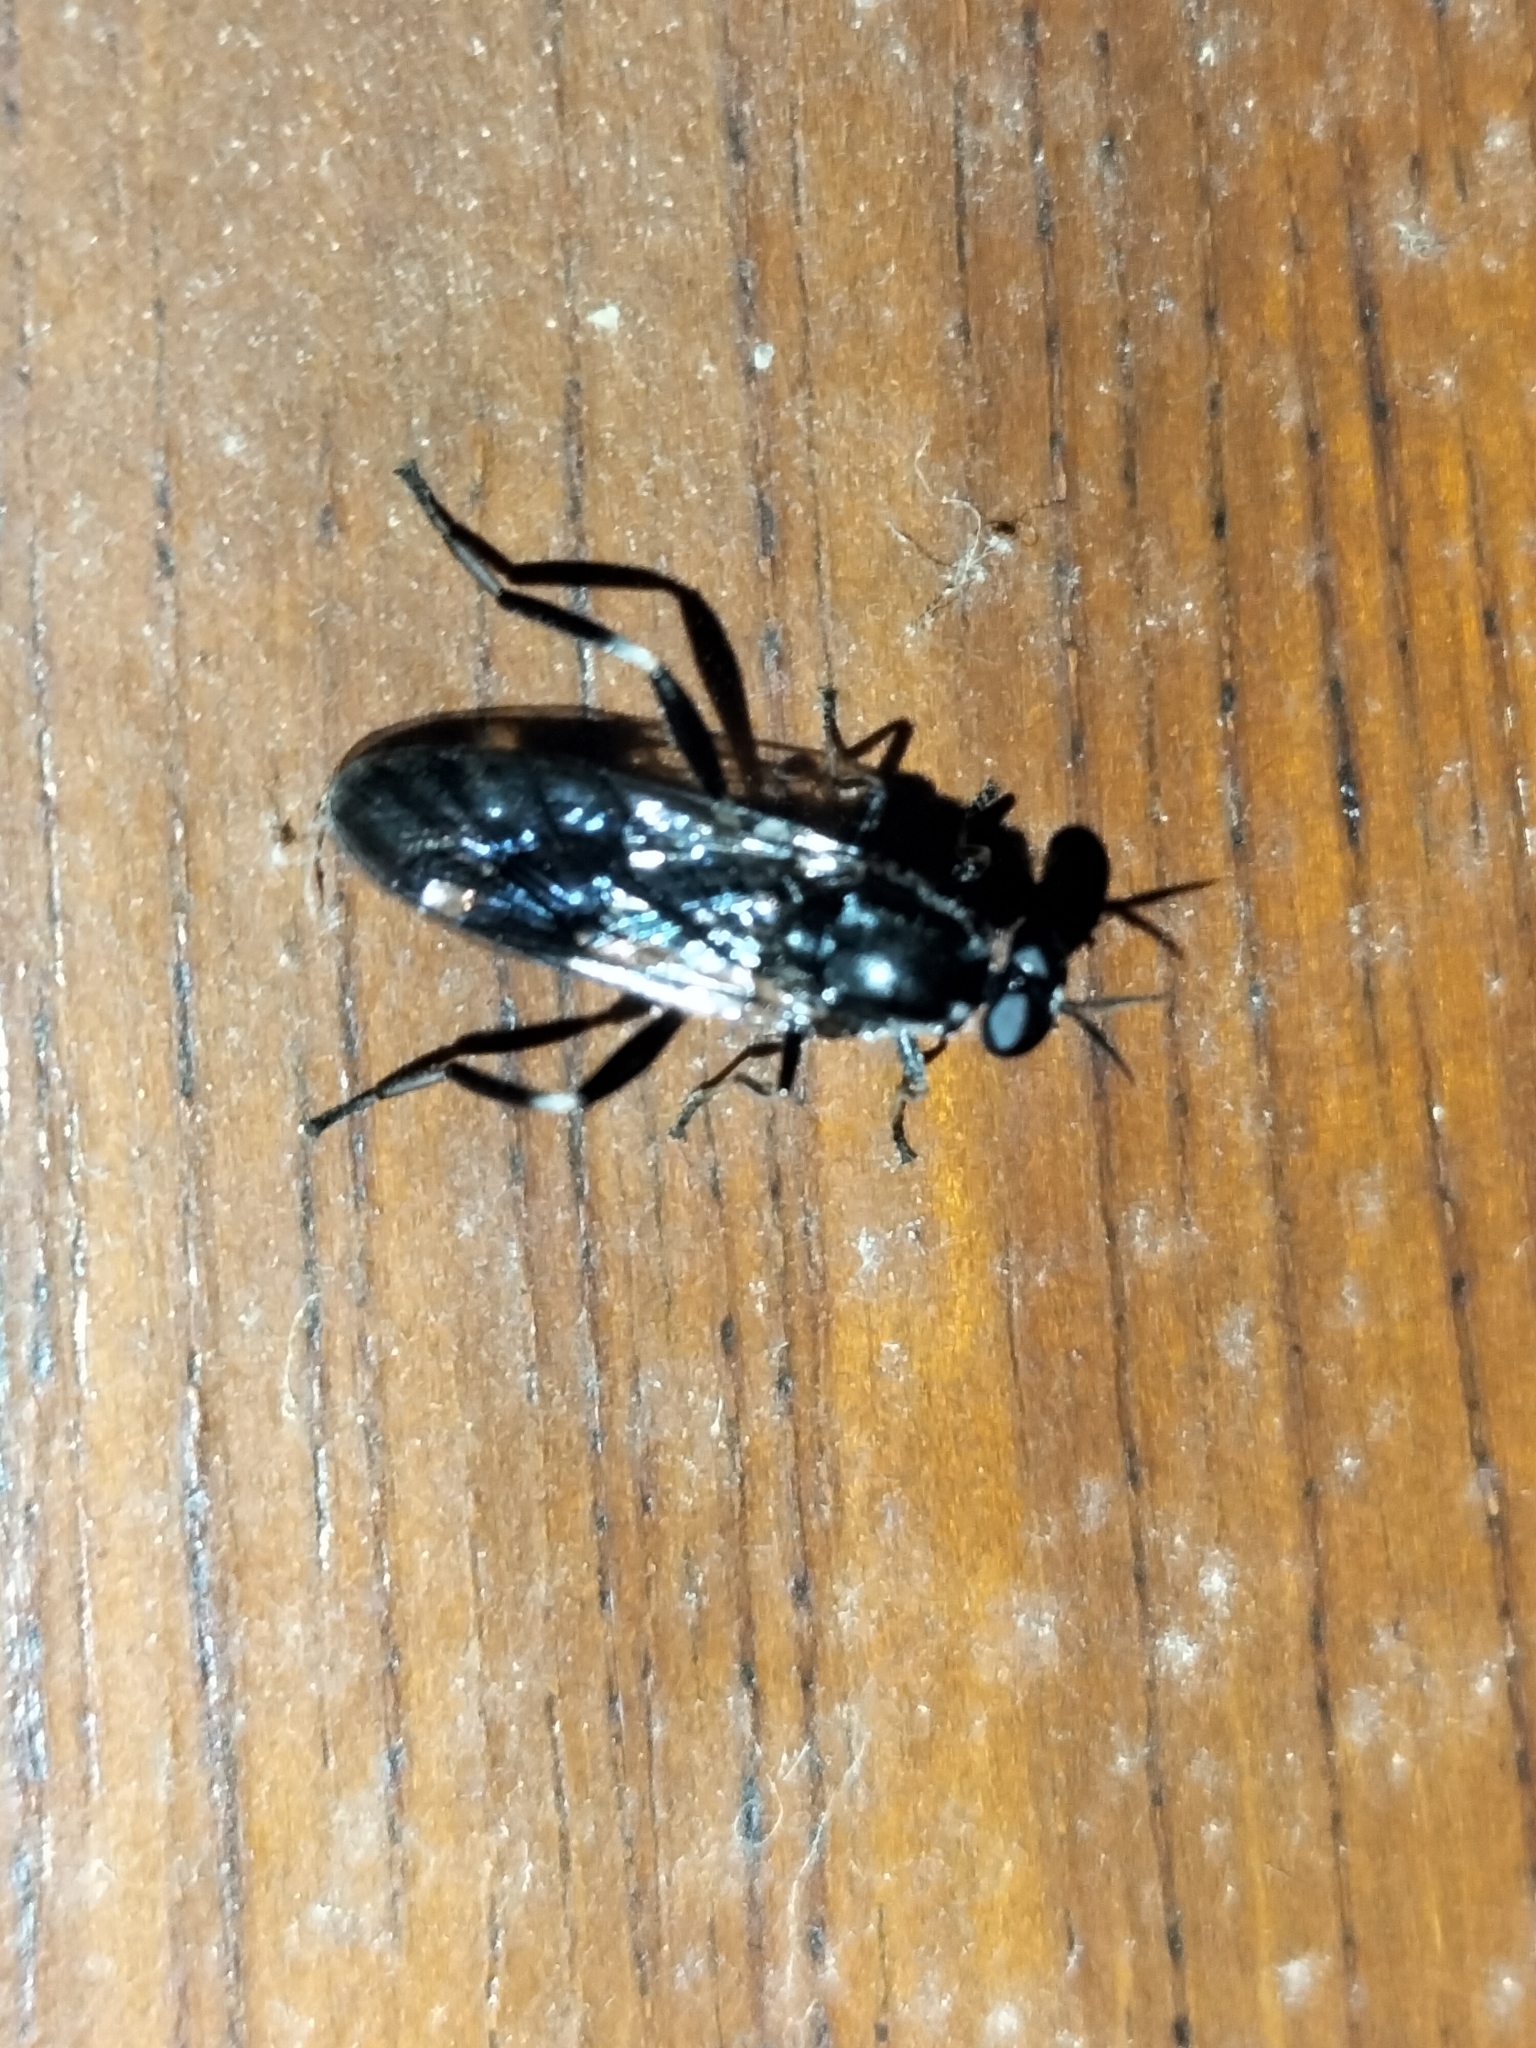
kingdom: Animalia
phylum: Arthropoda
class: Insecta
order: Diptera
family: Stratiomyidae
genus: Exaireta
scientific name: Exaireta spinigera
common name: Blue soldier fly
